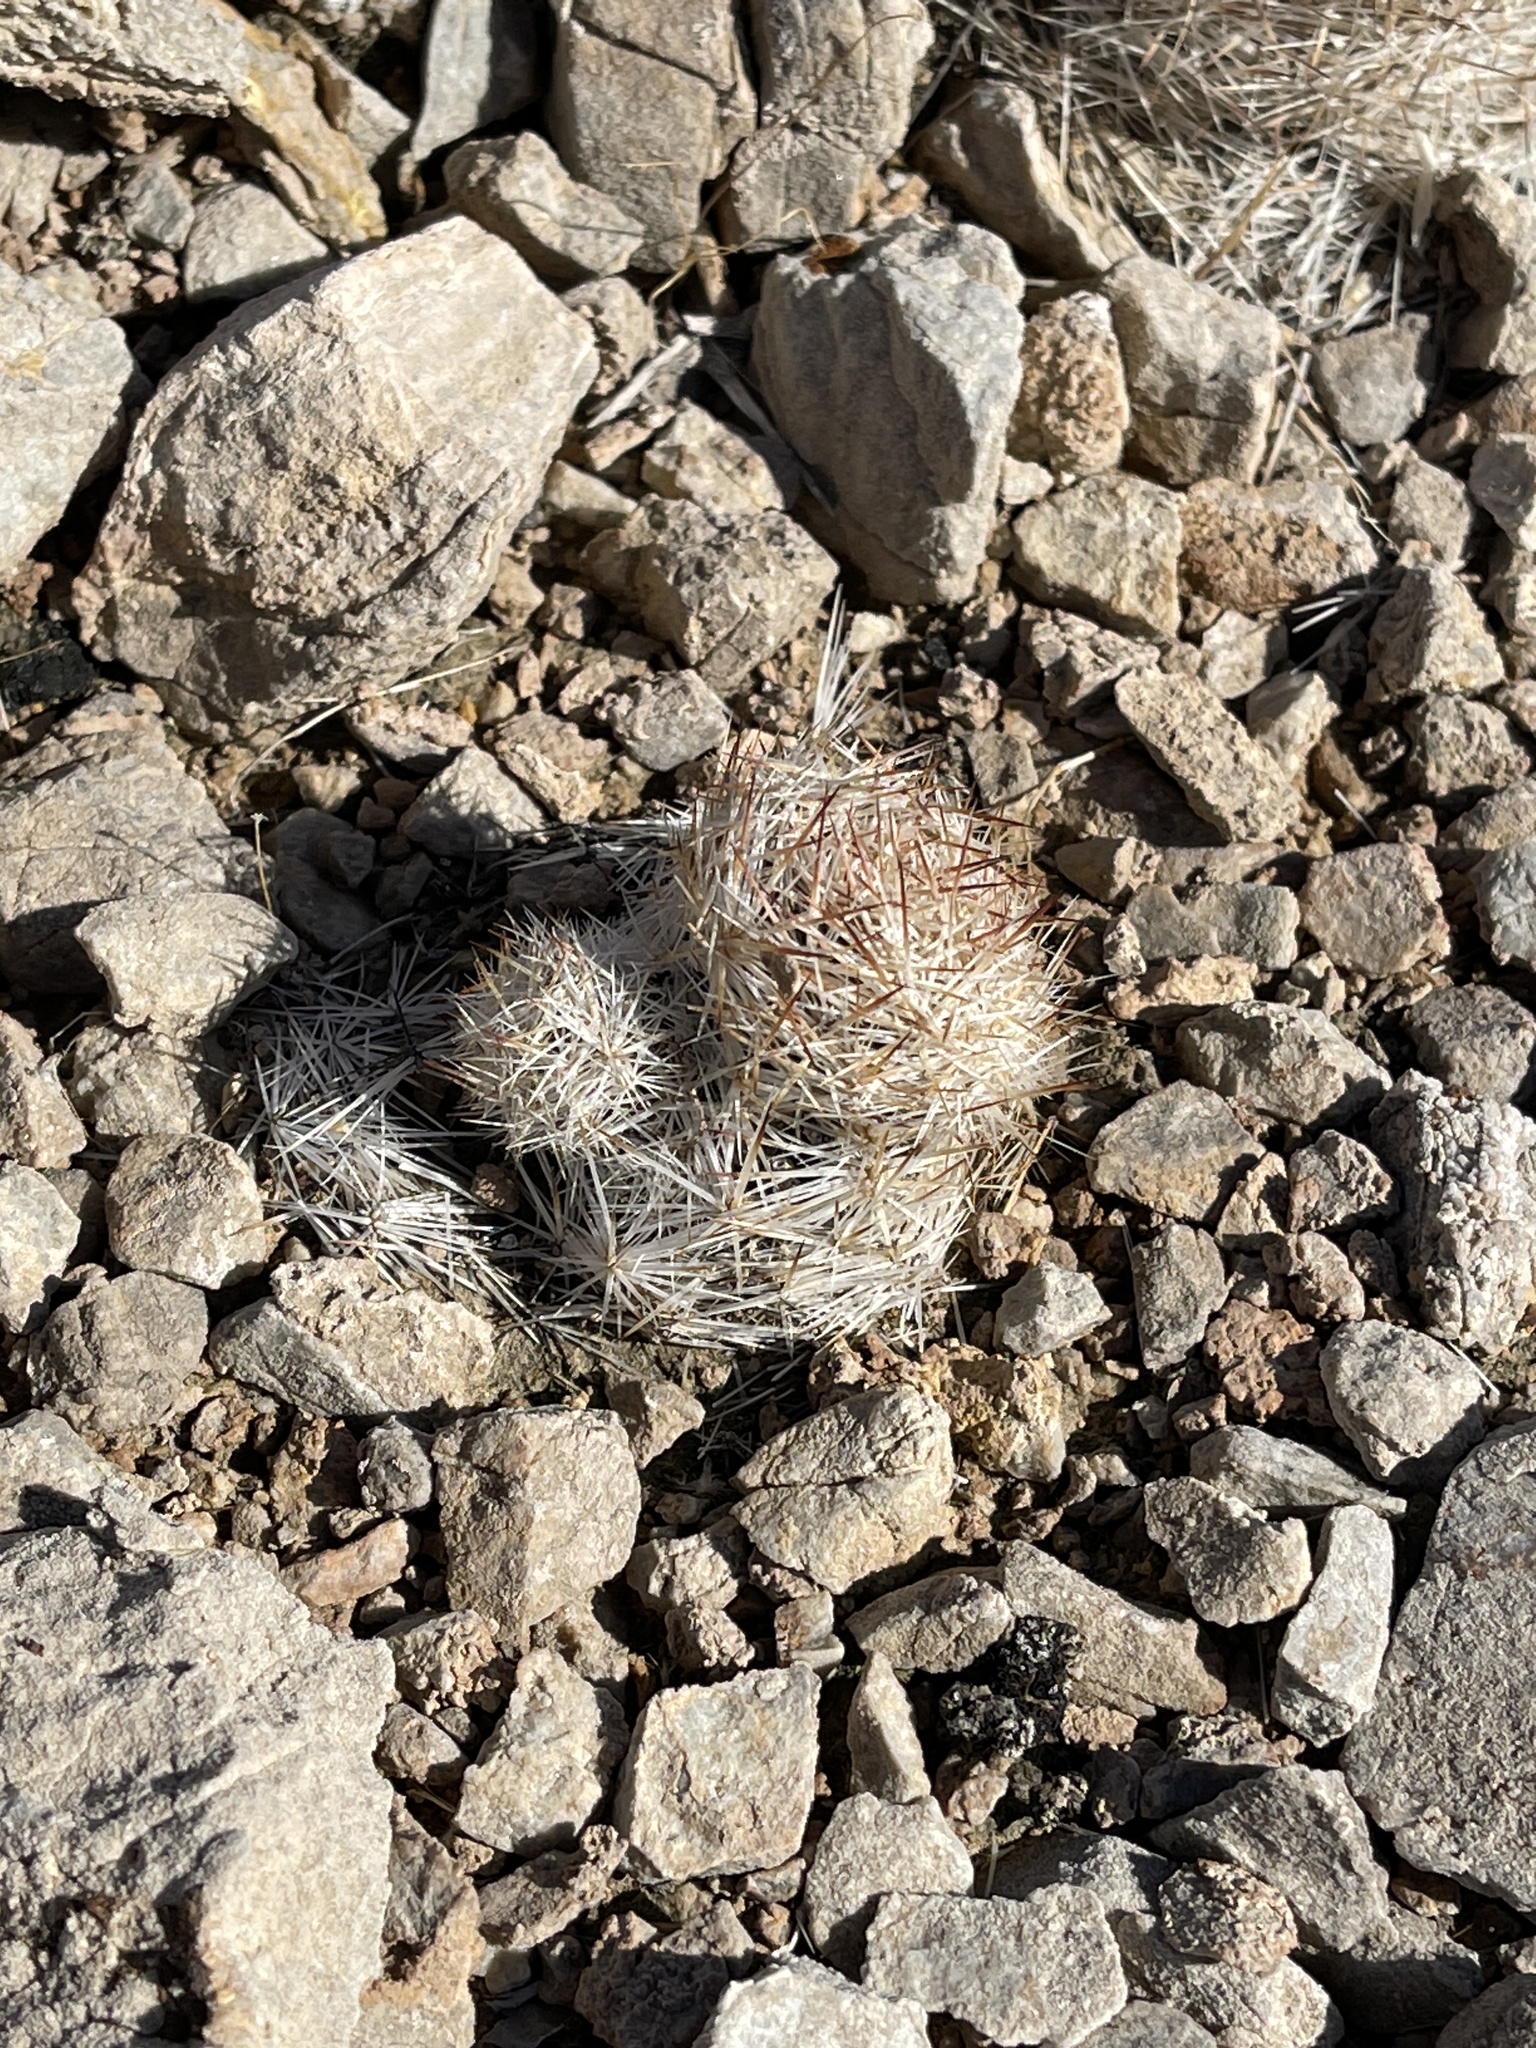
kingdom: Plantae
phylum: Tracheophyta
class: Magnoliopsida
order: Caryophyllales
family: Cactaceae
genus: Pelecyphora
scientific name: Pelecyphora dasyacantha
